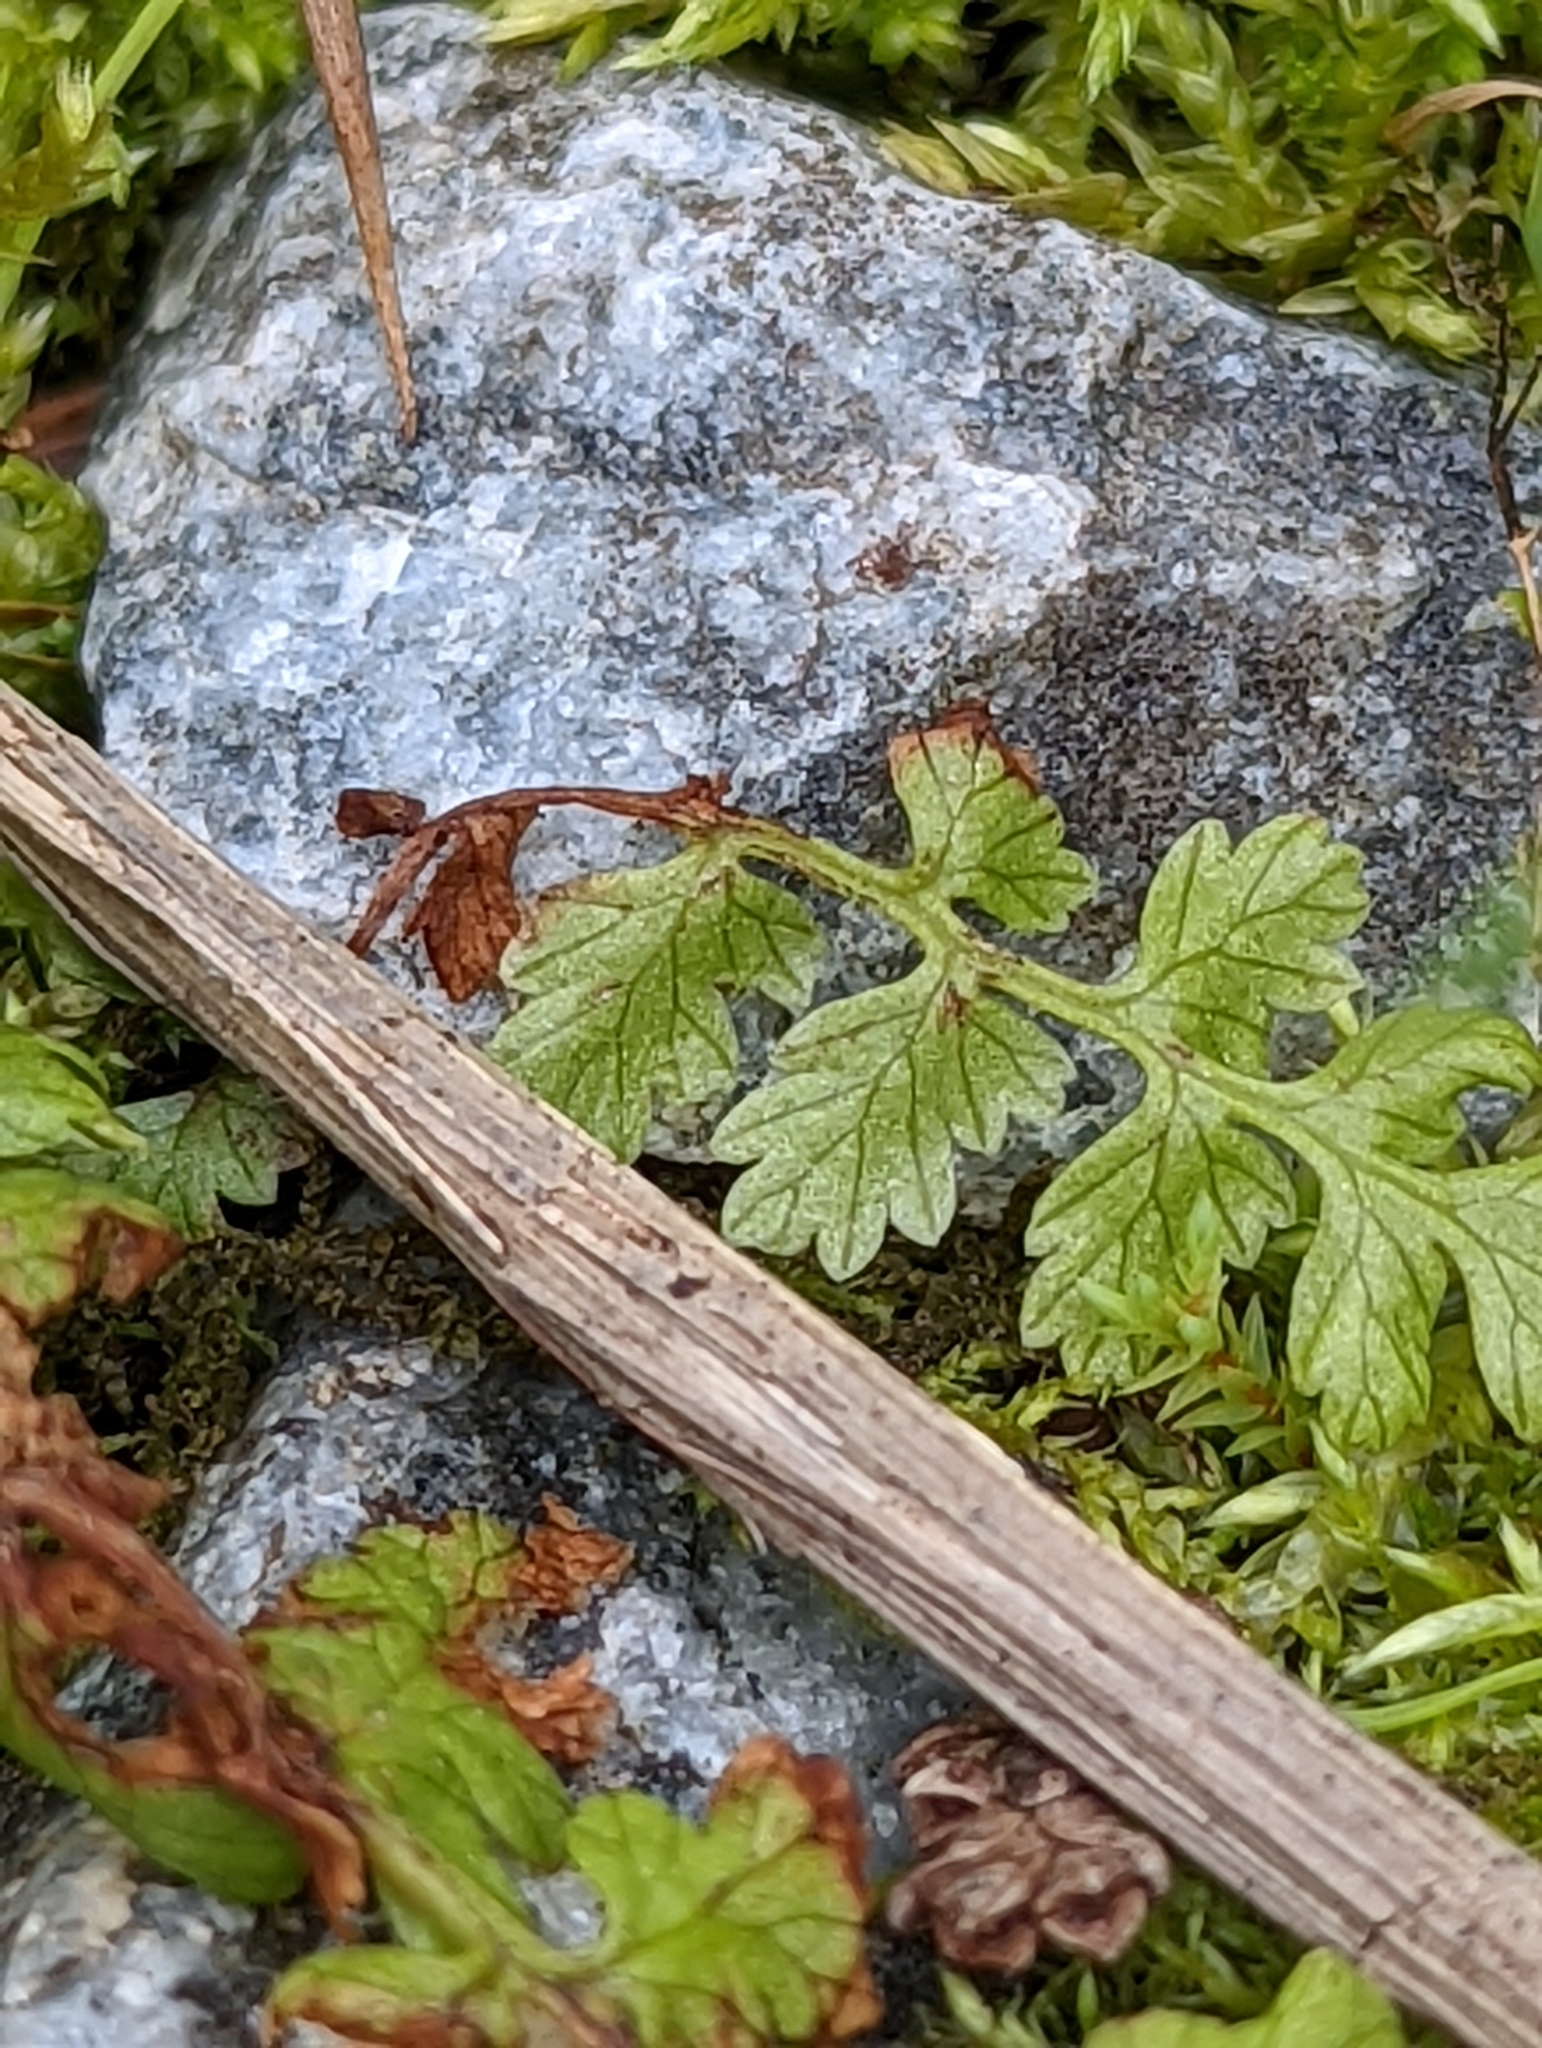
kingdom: Plantae
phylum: Tracheophyta
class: Polypodiopsida
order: Polypodiales
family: Athyriaceae
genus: Athyrium
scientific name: Athyrium filix-femina
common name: Lady fern
